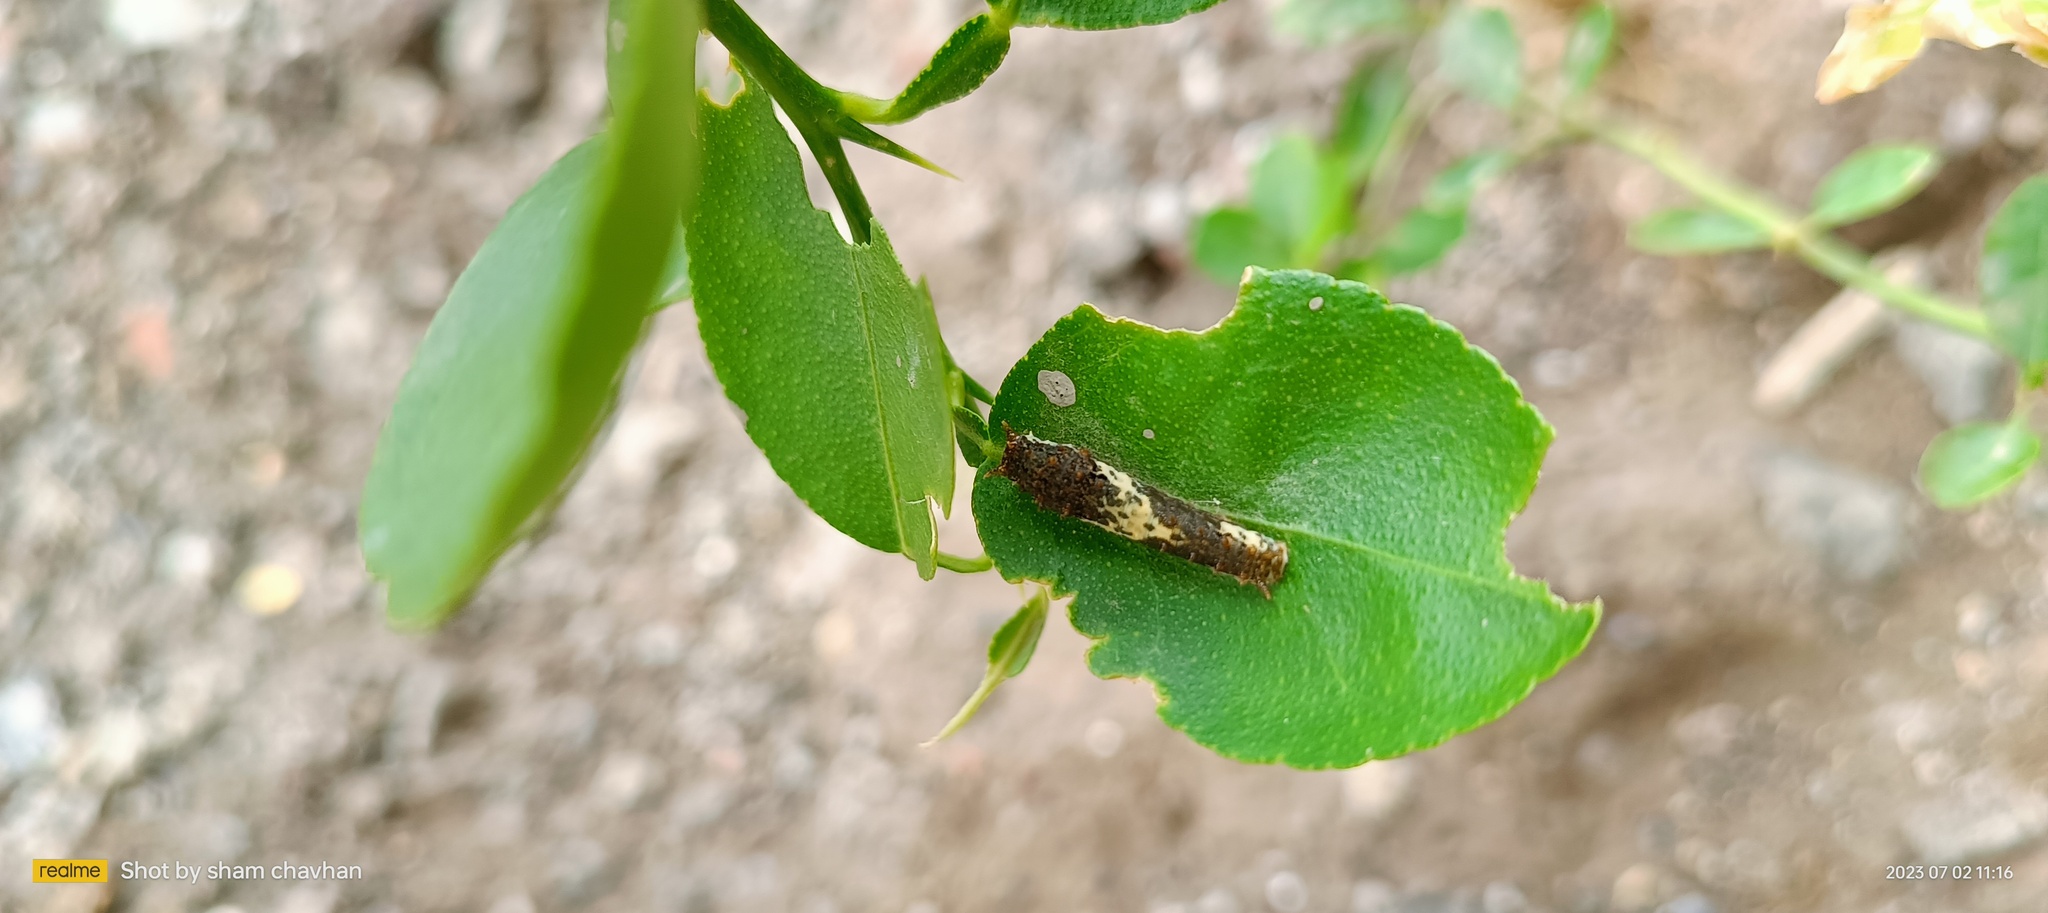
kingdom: Animalia
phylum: Arthropoda
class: Insecta
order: Lepidoptera
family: Papilionidae
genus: Papilio
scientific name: Papilio demoleus
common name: Lime butterfly
